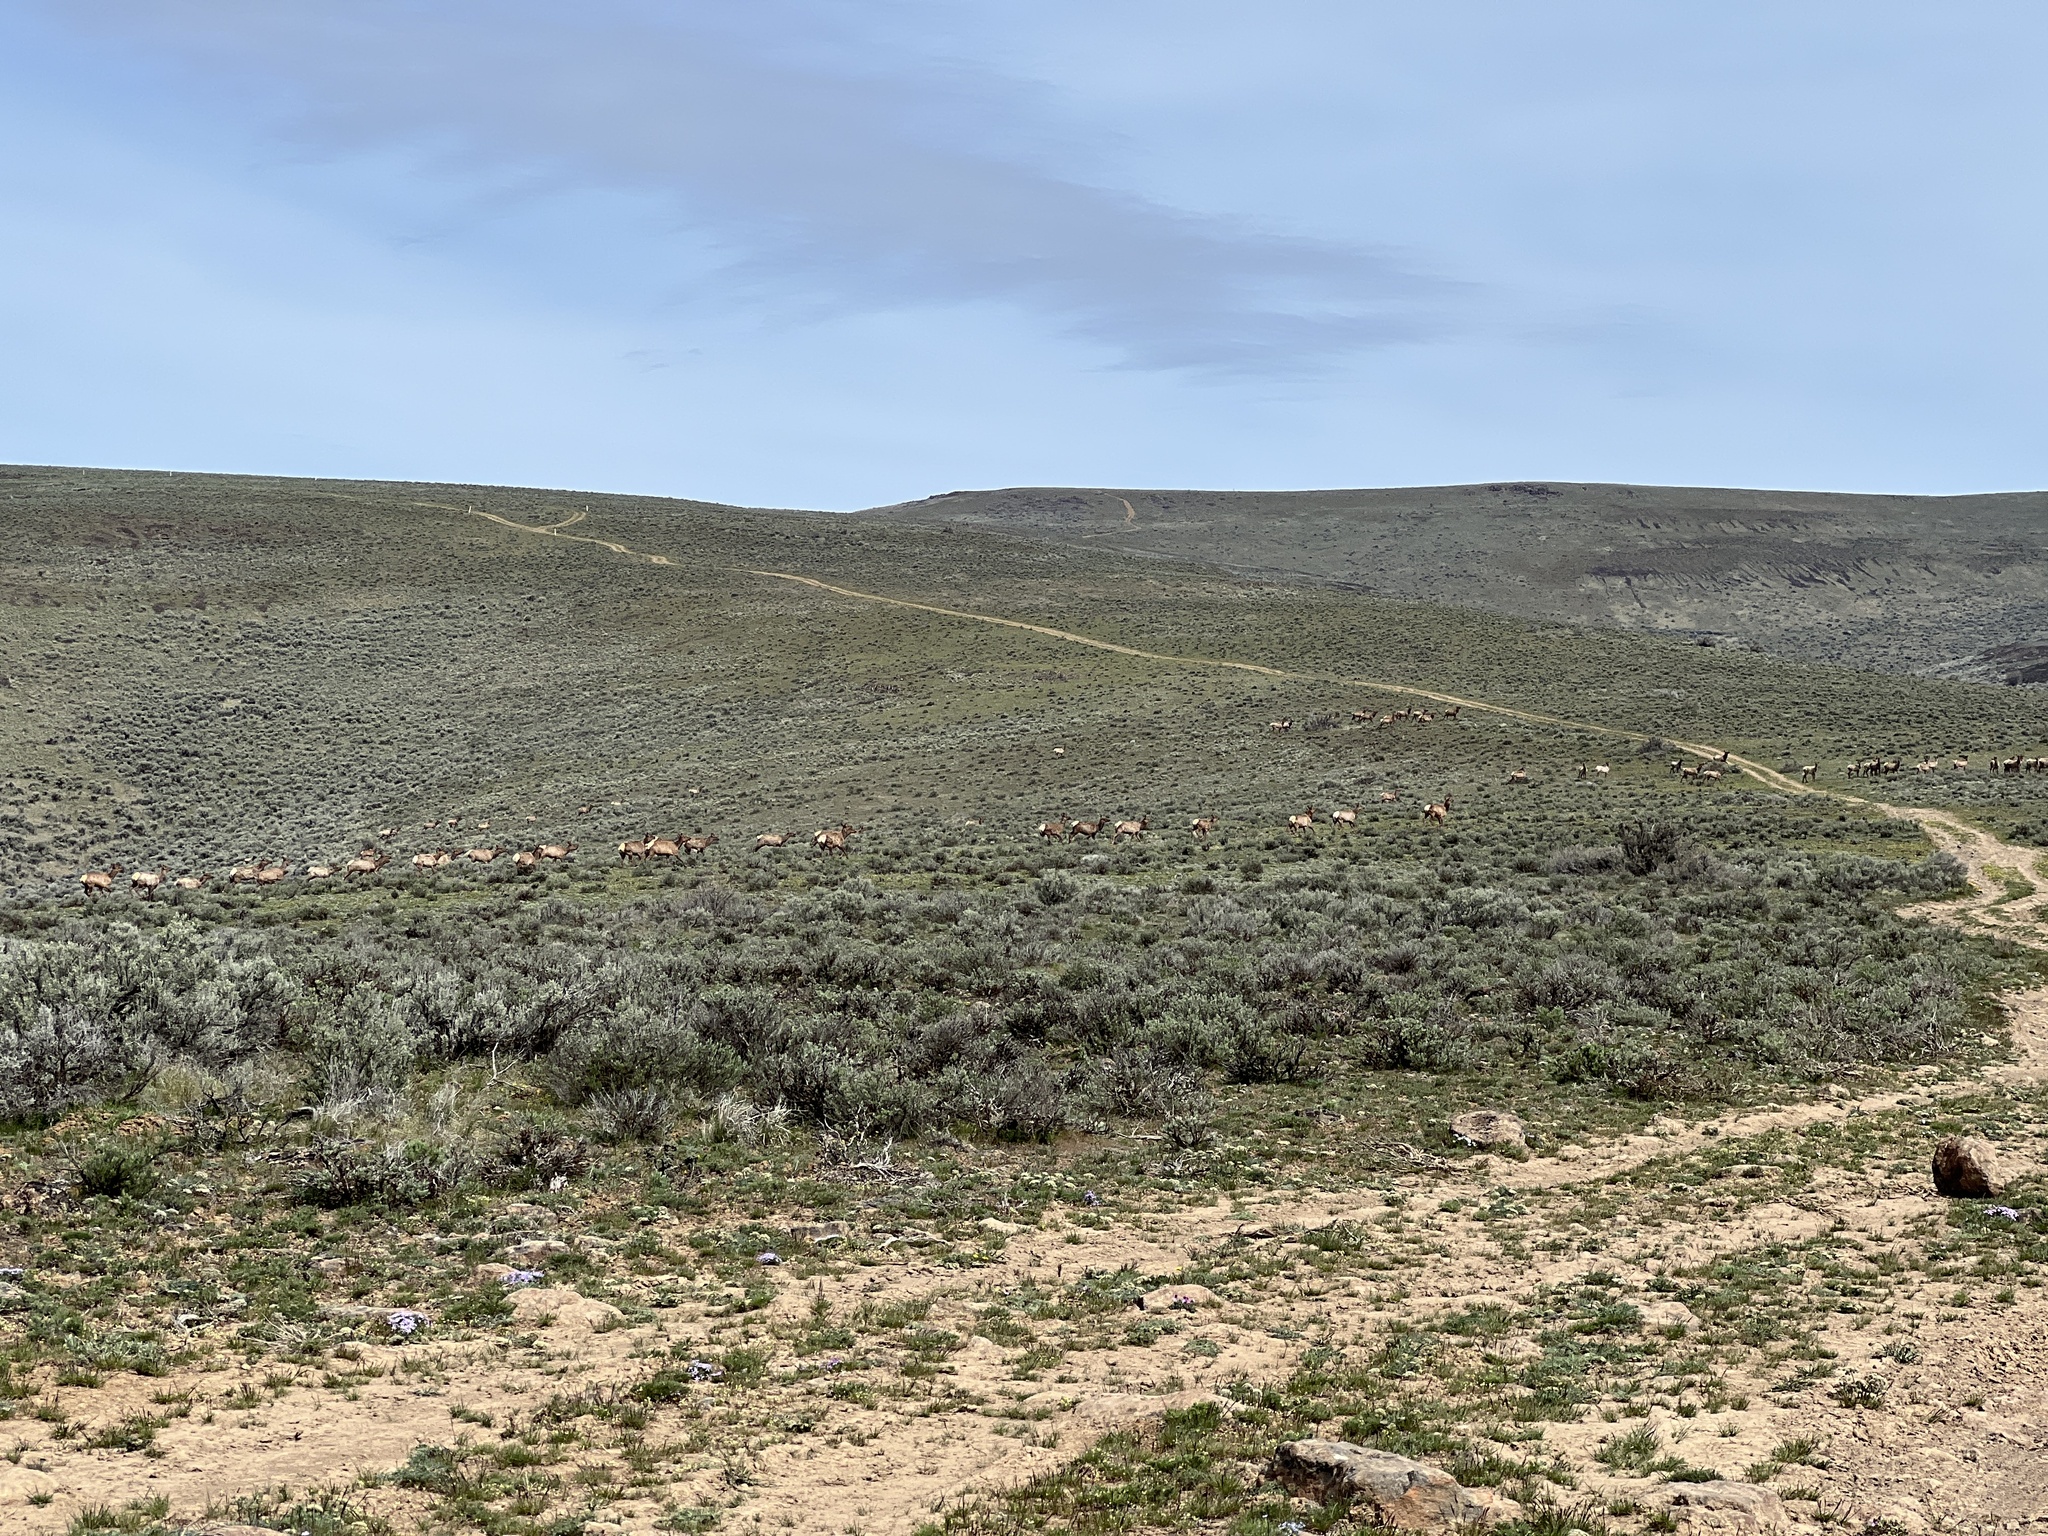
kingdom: Animalia
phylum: Chordata
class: Mammalia
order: Artiodactyla
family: Cervidae
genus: Cervus
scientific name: Cervus elaphus
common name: Red deer
